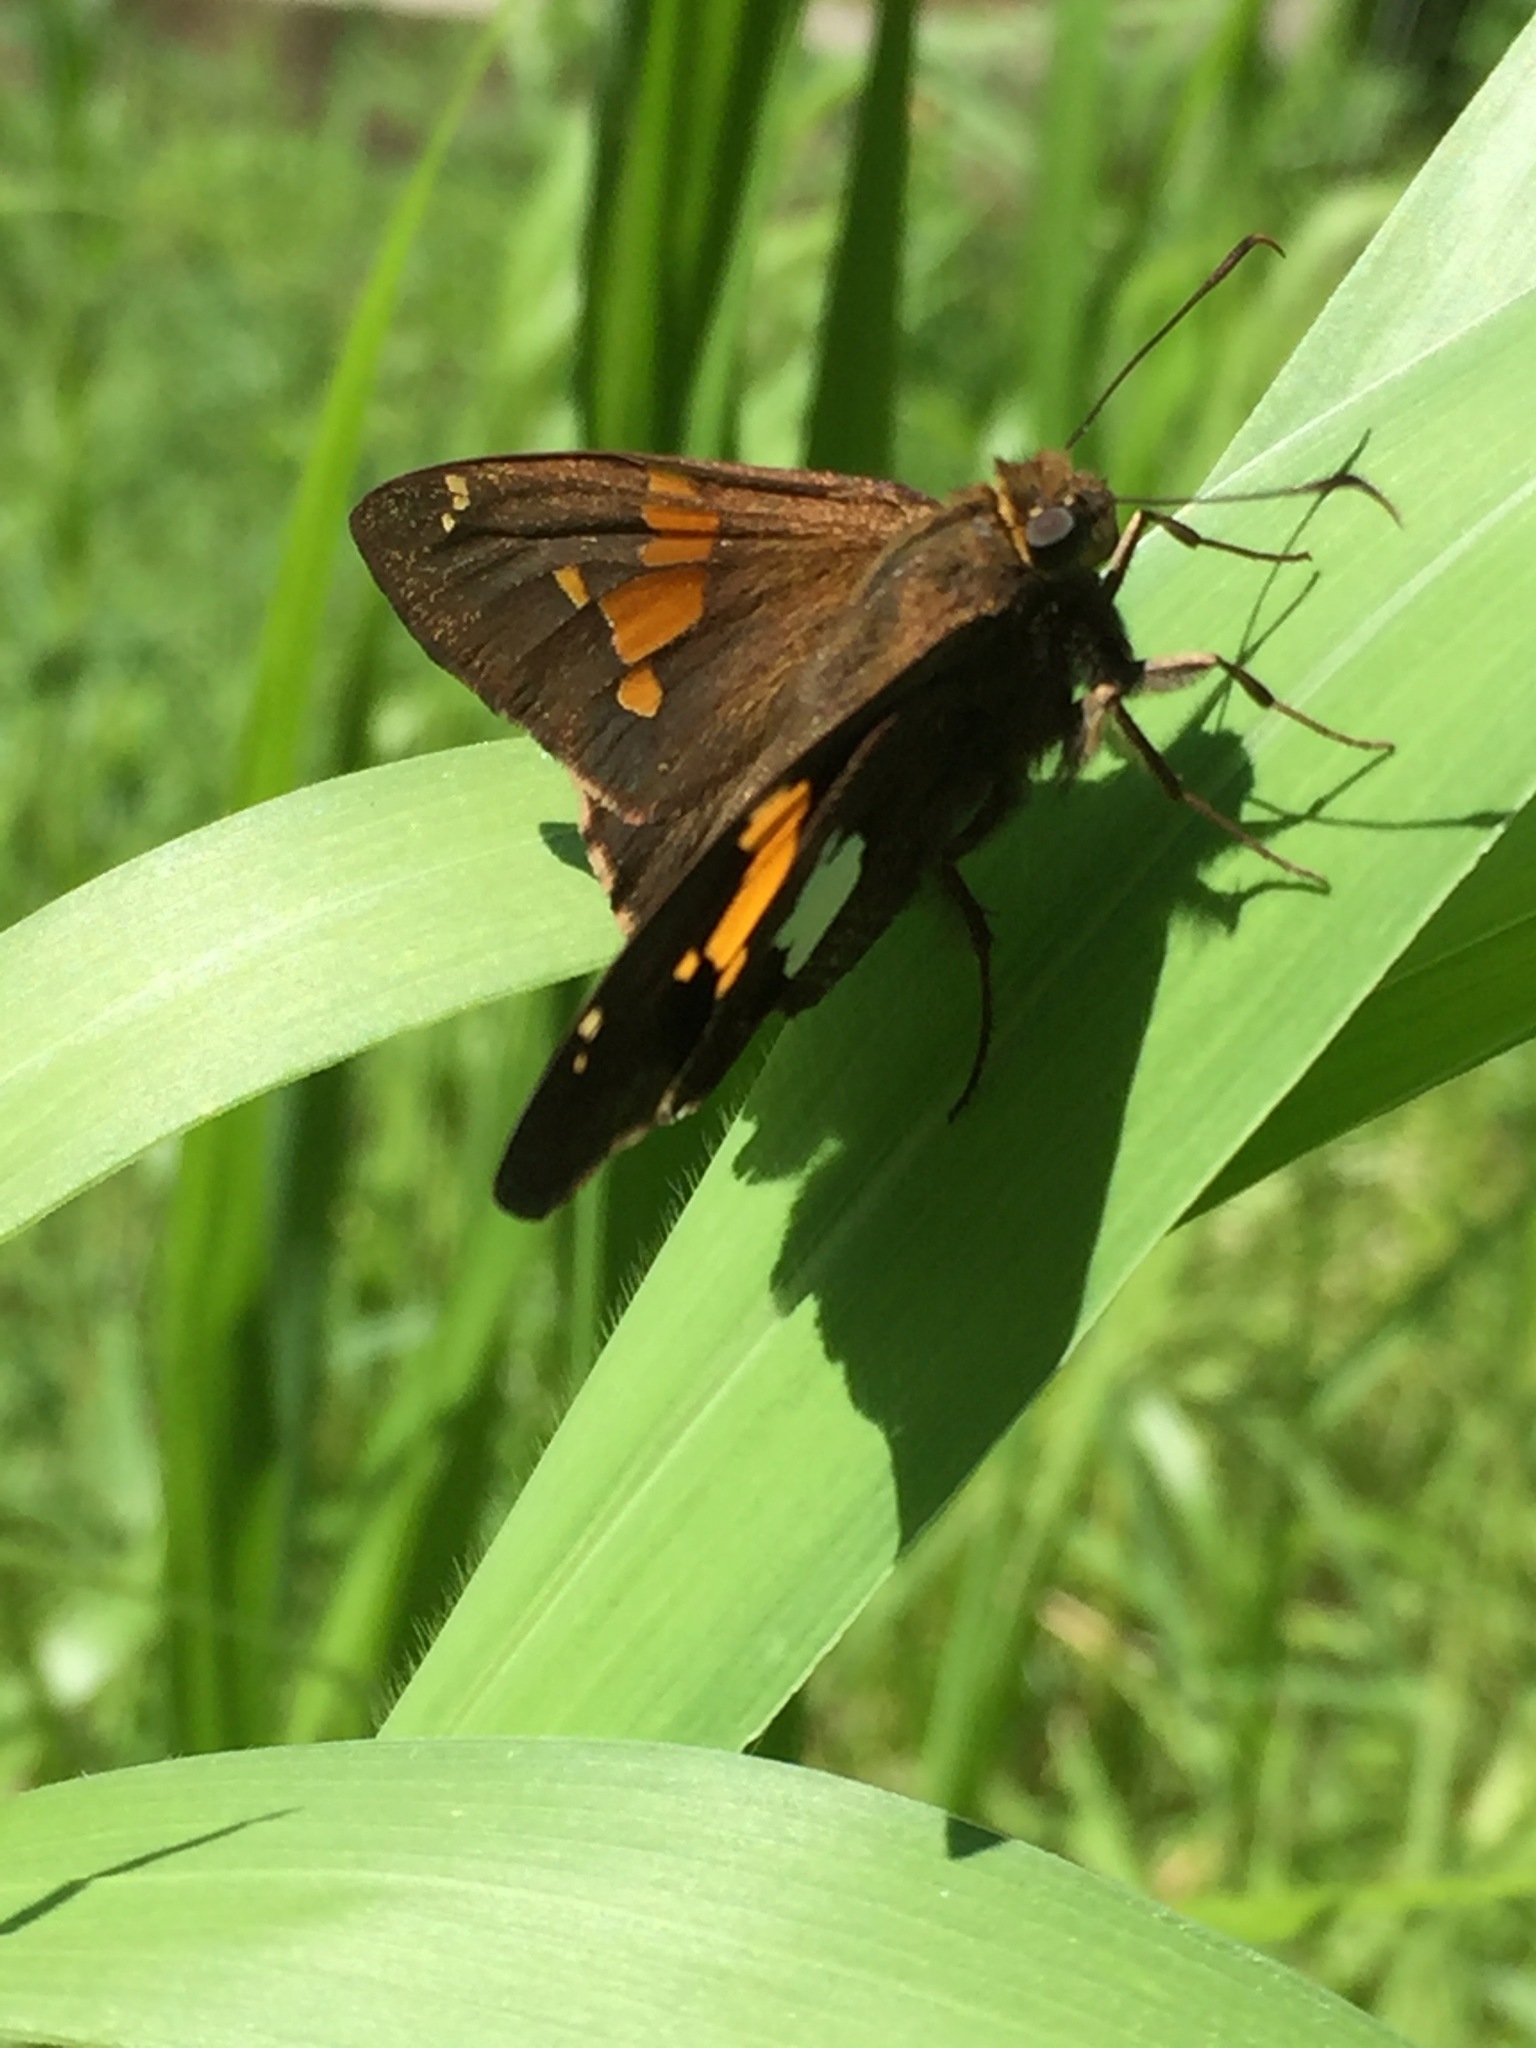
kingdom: Animalia
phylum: Arthropoda
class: Insecta
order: Lepidoptera
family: Hesperiidae
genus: Epargyreus
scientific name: Epargyreus clarus
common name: Silver-spotted skipper
